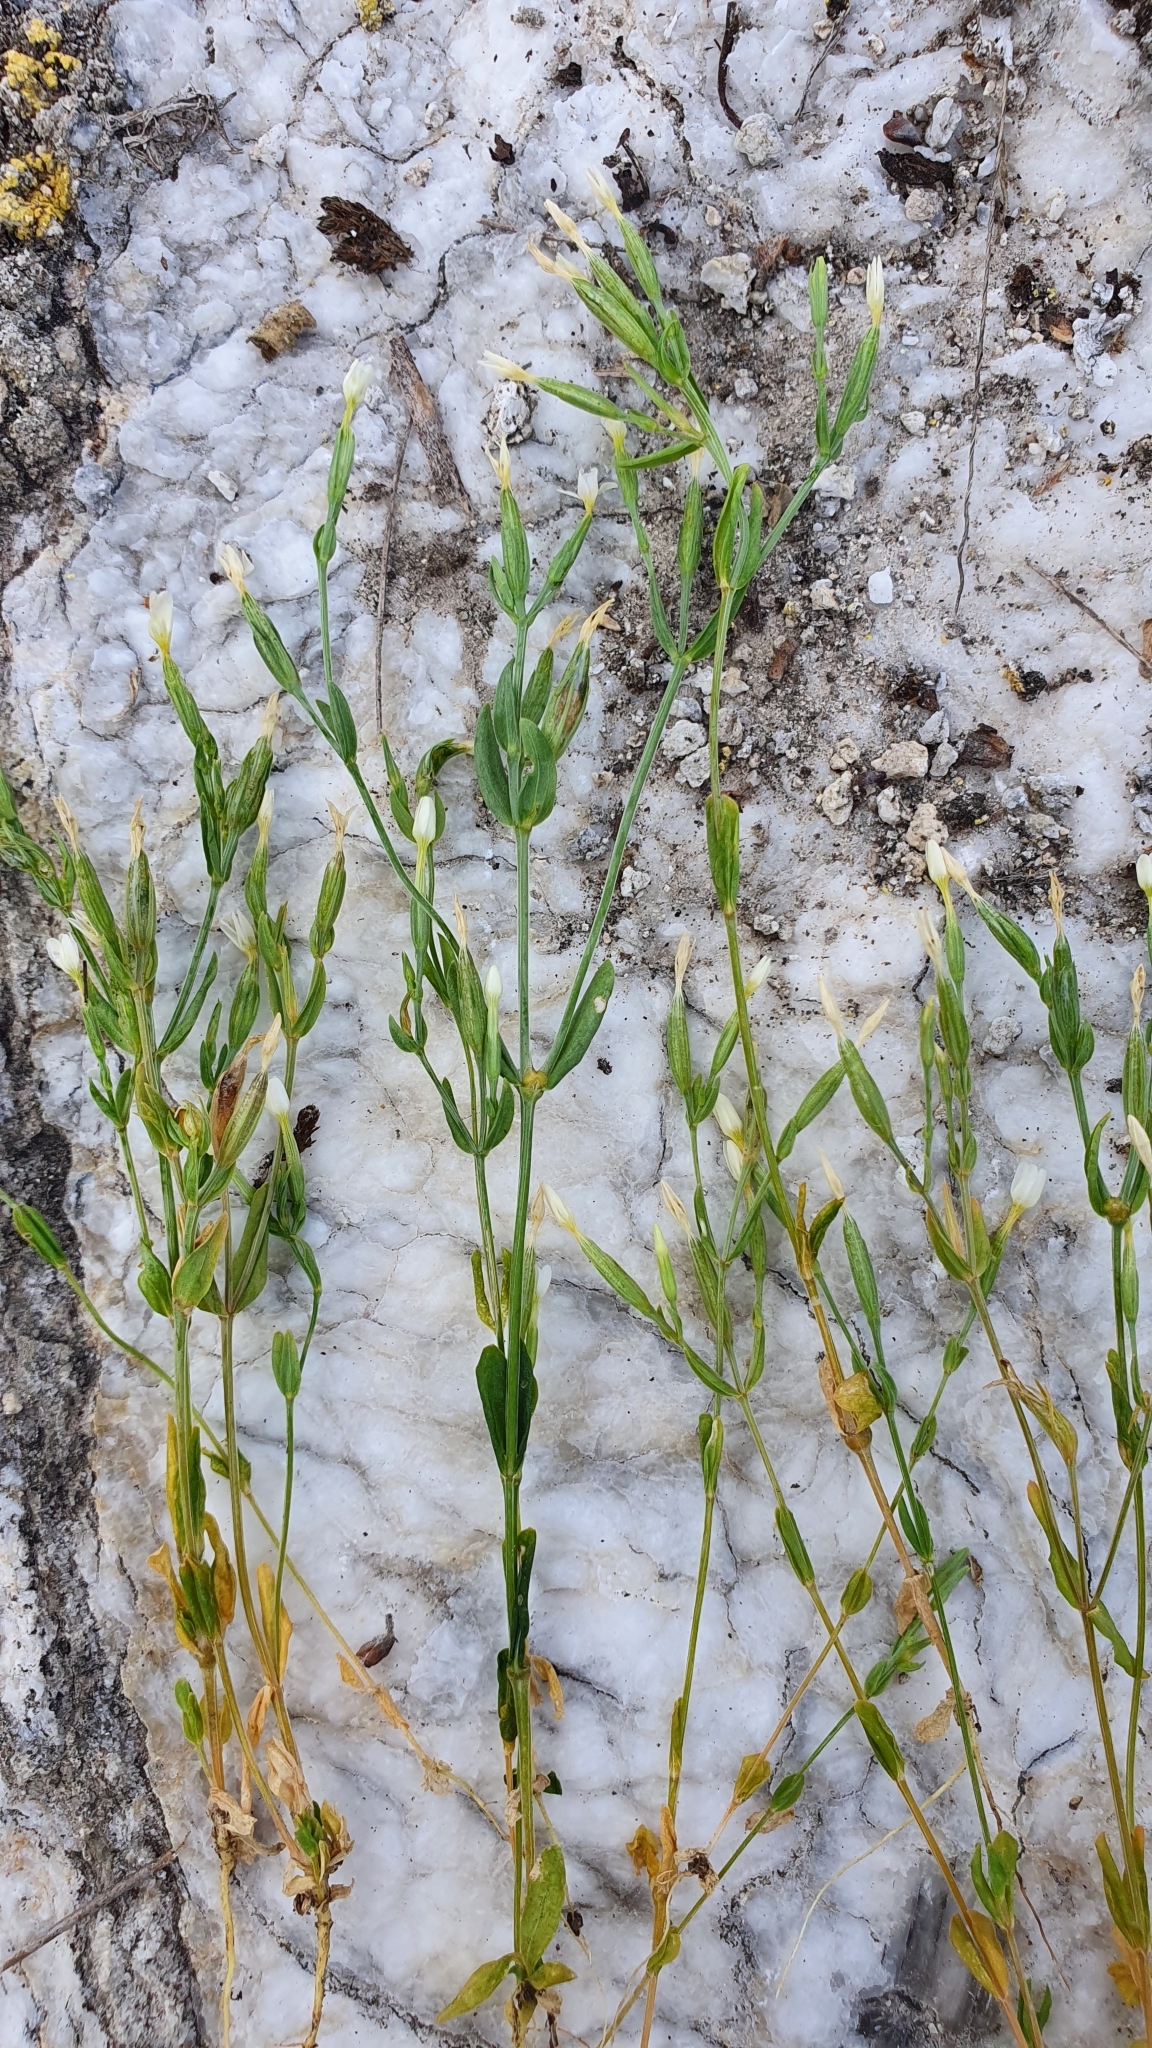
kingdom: Plantae
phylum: Tracheophyta
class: Magnoliopsida
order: Gentianales
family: Gentianaceae
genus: Centaurium
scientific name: Centaurium pulchellum
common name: Lesser centaury
